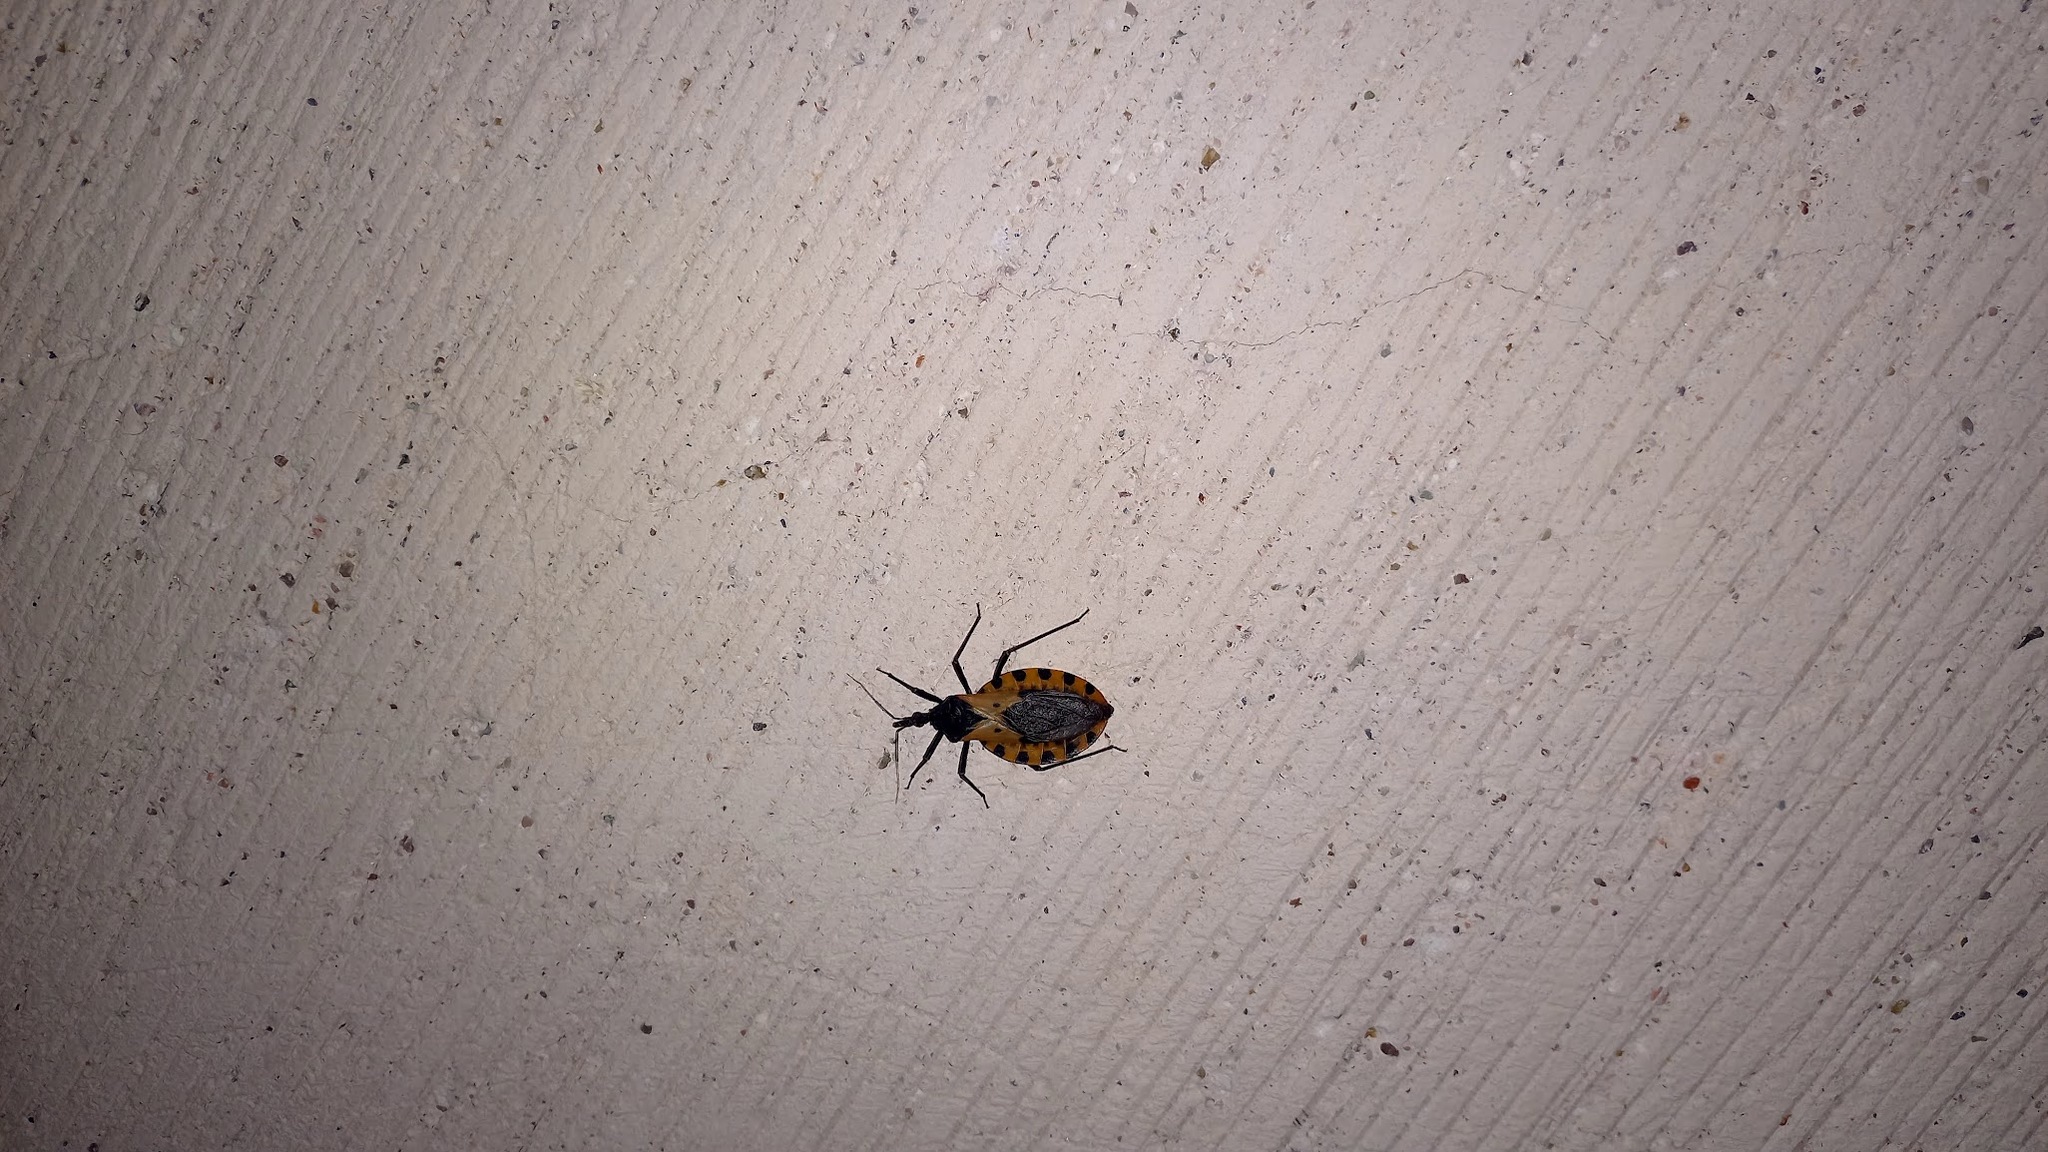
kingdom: Animalia
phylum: Arthropoda
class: Insecta
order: Hemiptera
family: Reduviidae
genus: Meccus
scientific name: Meccus dimidiatus
